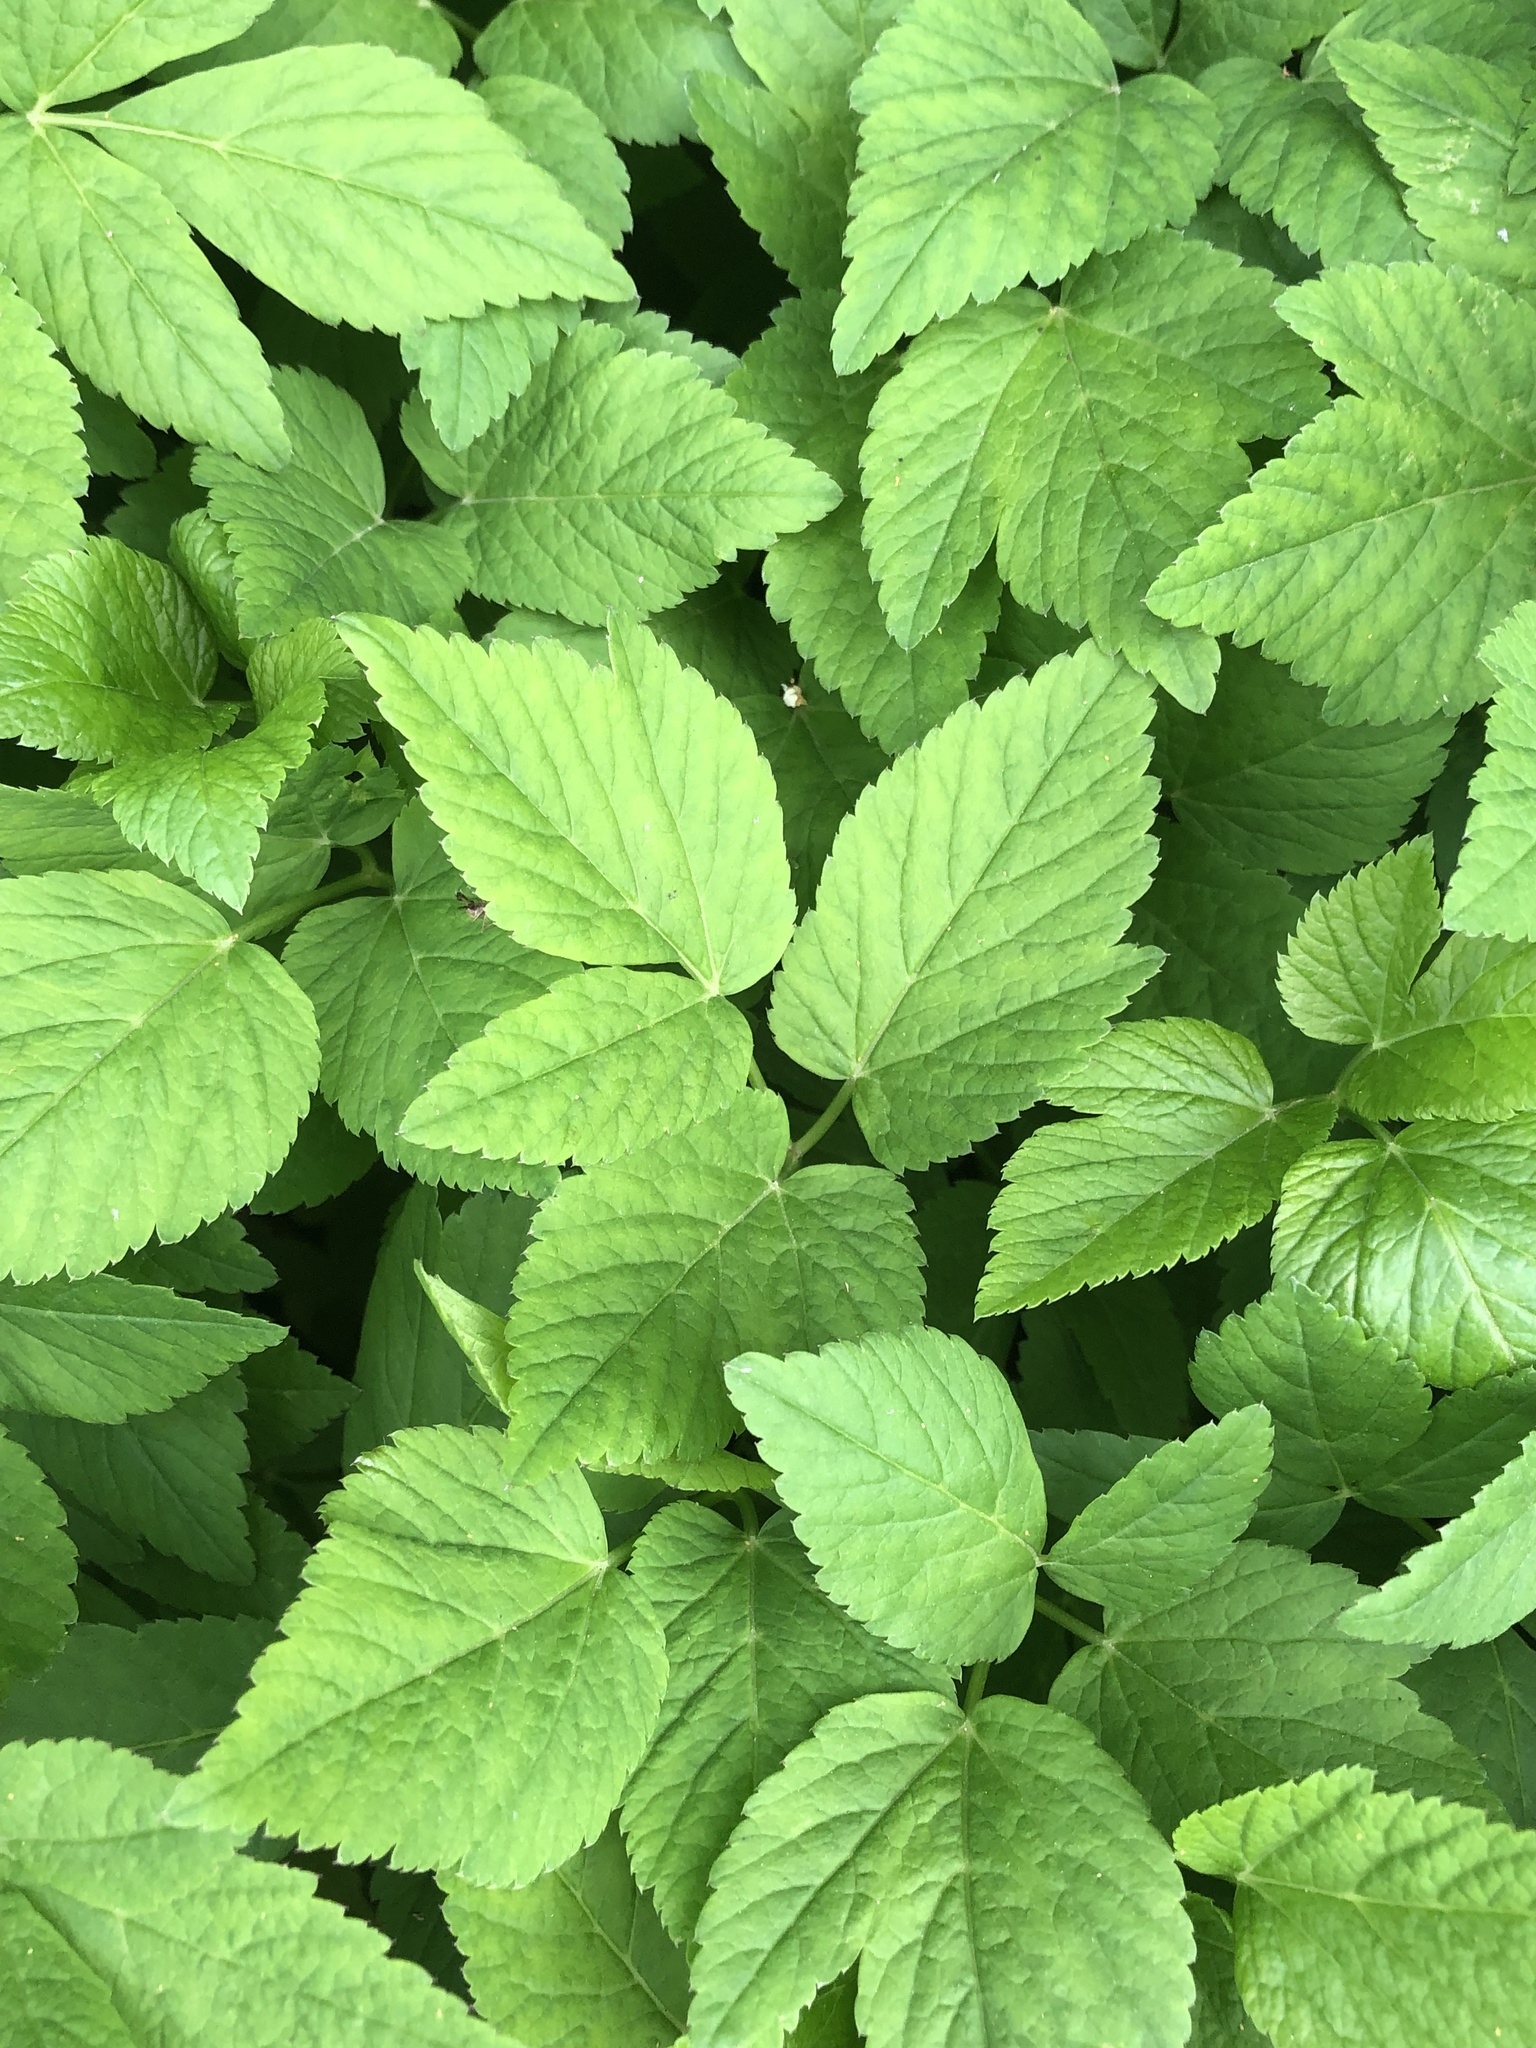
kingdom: Plantae
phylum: Tracheophyta
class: Magnoliopsida
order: Apiales
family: Apiaceae
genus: Aegopodium
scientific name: Aegopodium podagraria
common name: Ground-elder
